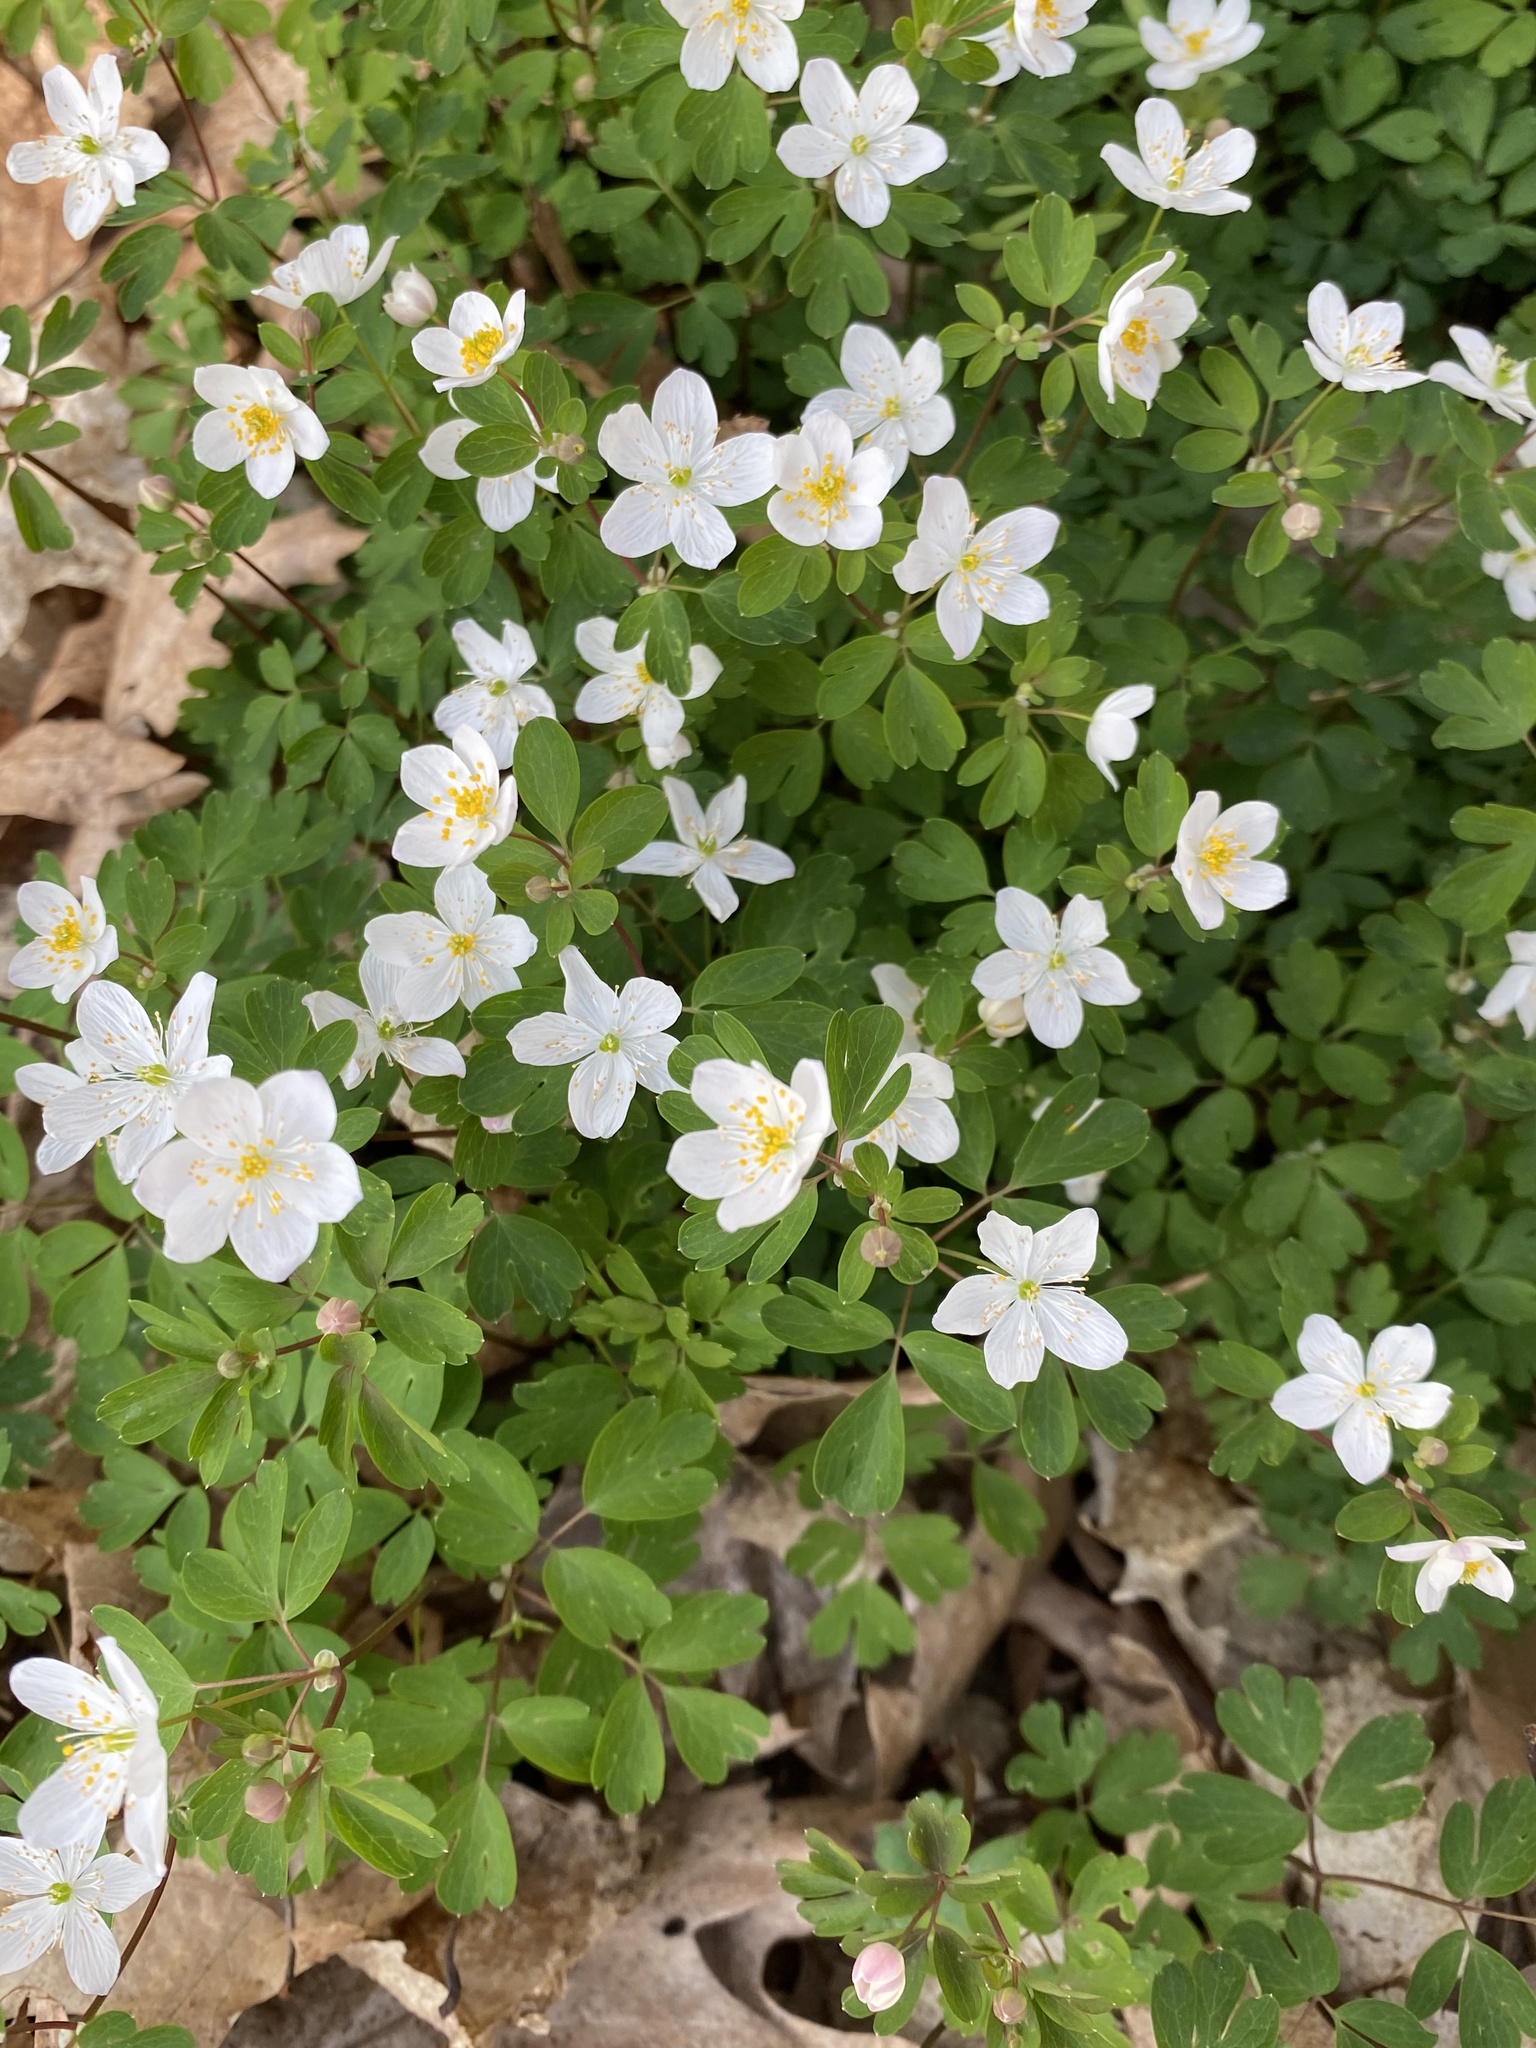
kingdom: Plantae
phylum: Tracheophyta
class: Magnoliopsida
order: Ranunculales
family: Ranunculaceae
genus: Enemion
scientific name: Enemion biternatum
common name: Eastern false rue-anemone
